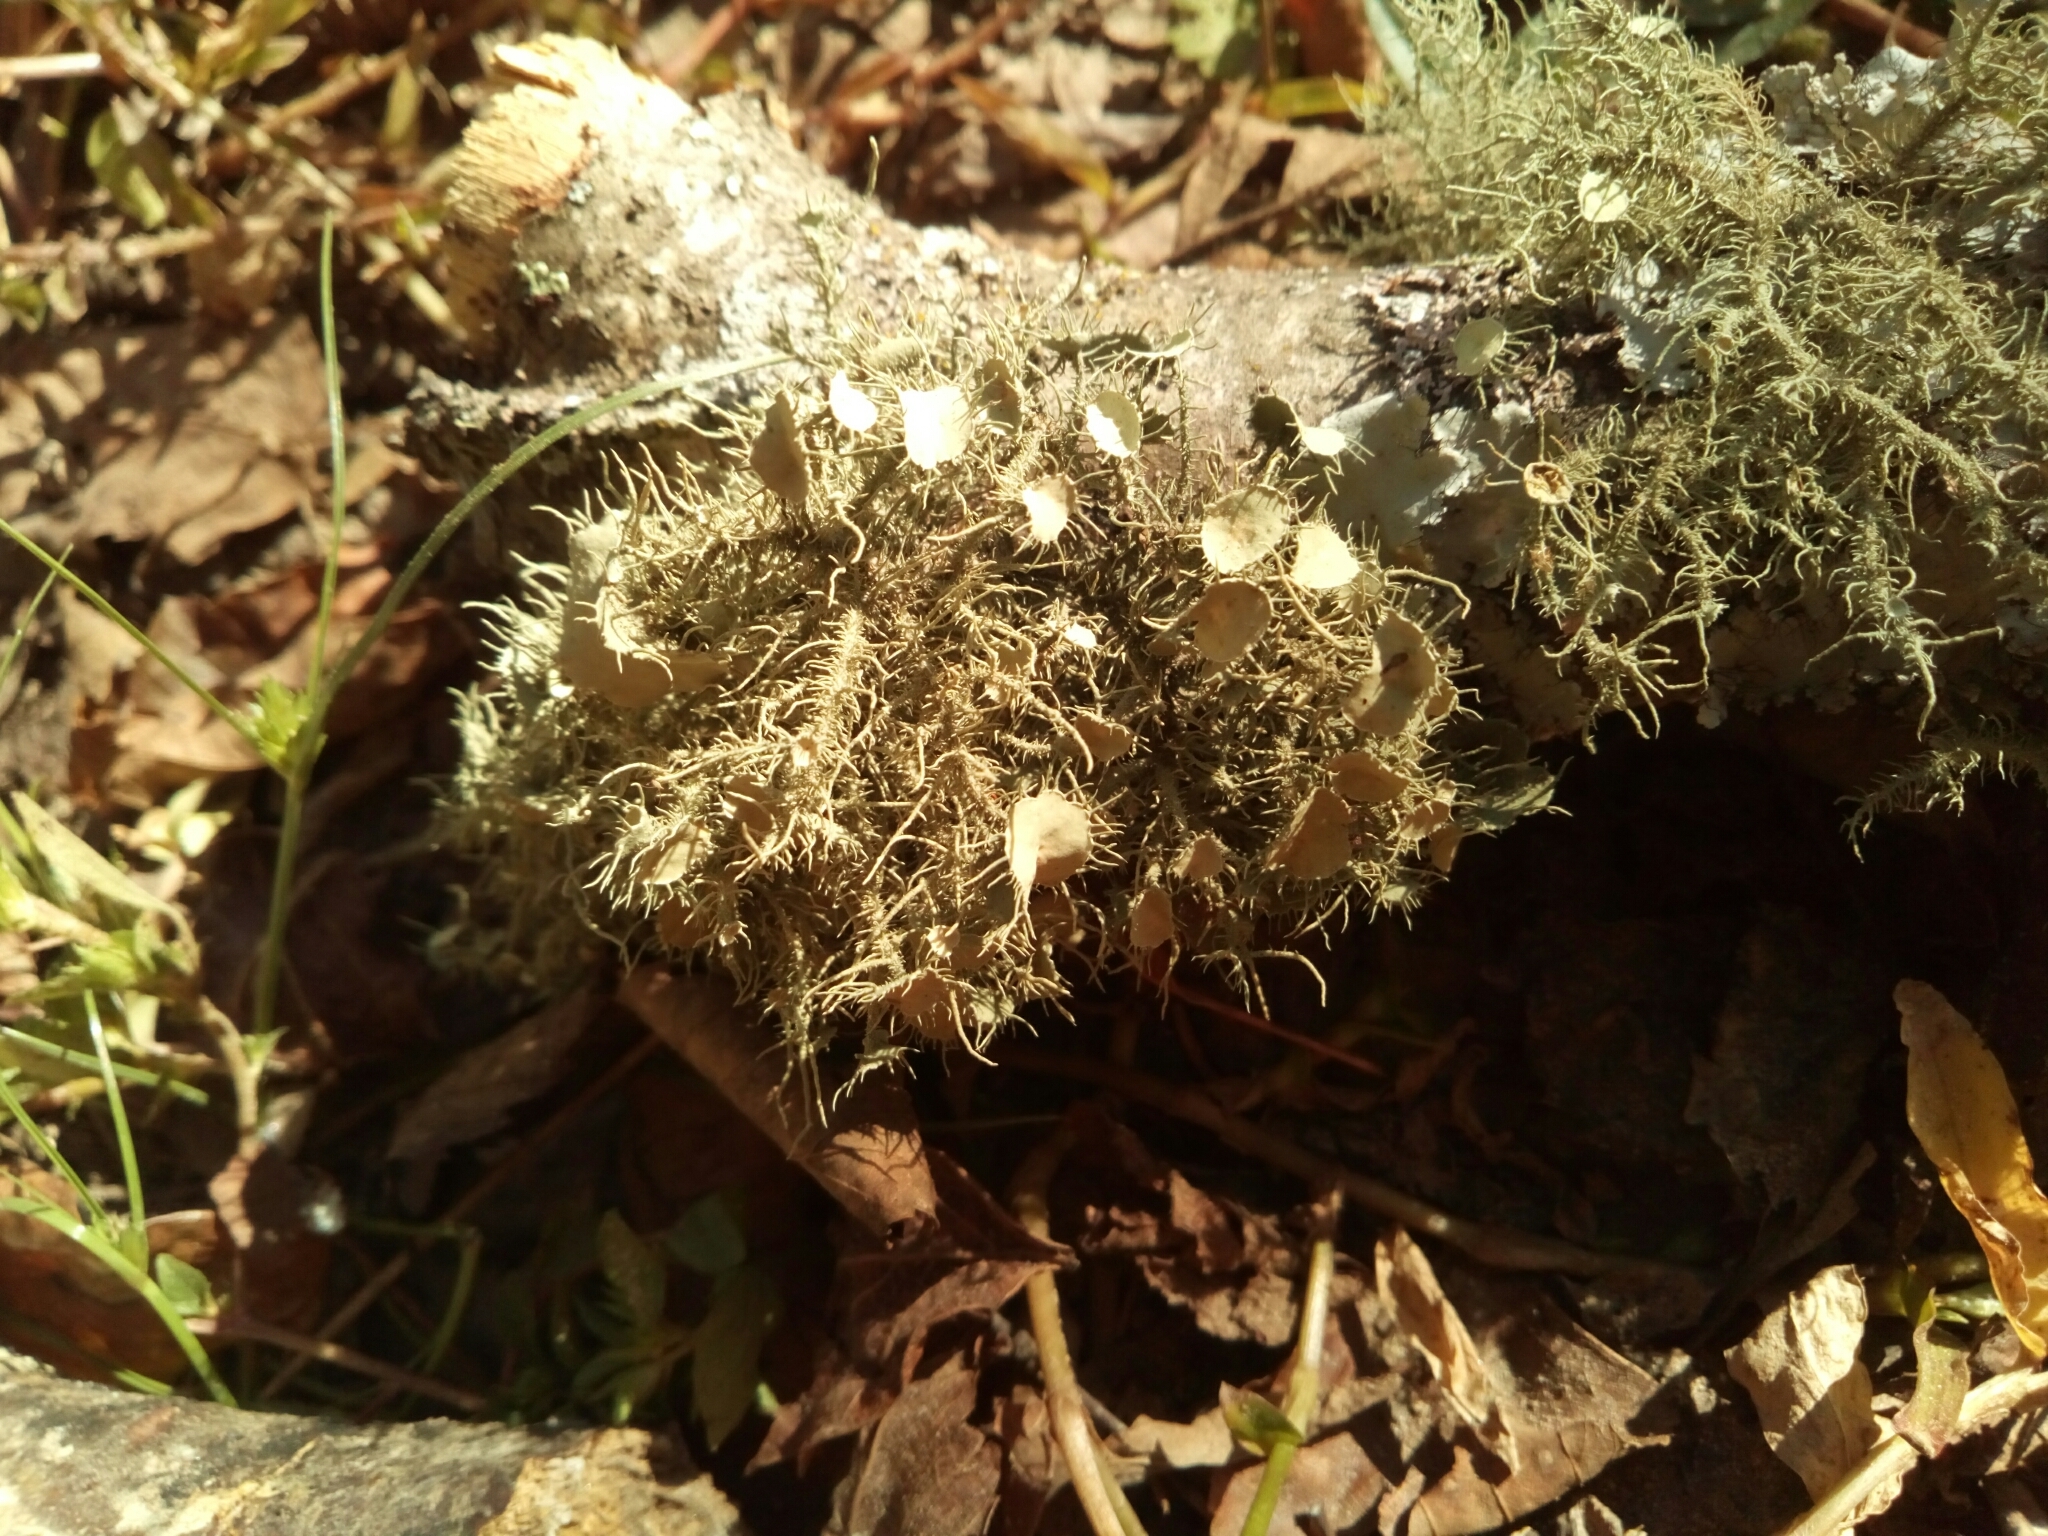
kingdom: Fungi
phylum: Ascomycota
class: Lecanoromycetes
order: Lecanorales
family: Parmeliaceae
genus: Usnea
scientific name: Usnea strigosa
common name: Bushy beard lichen
